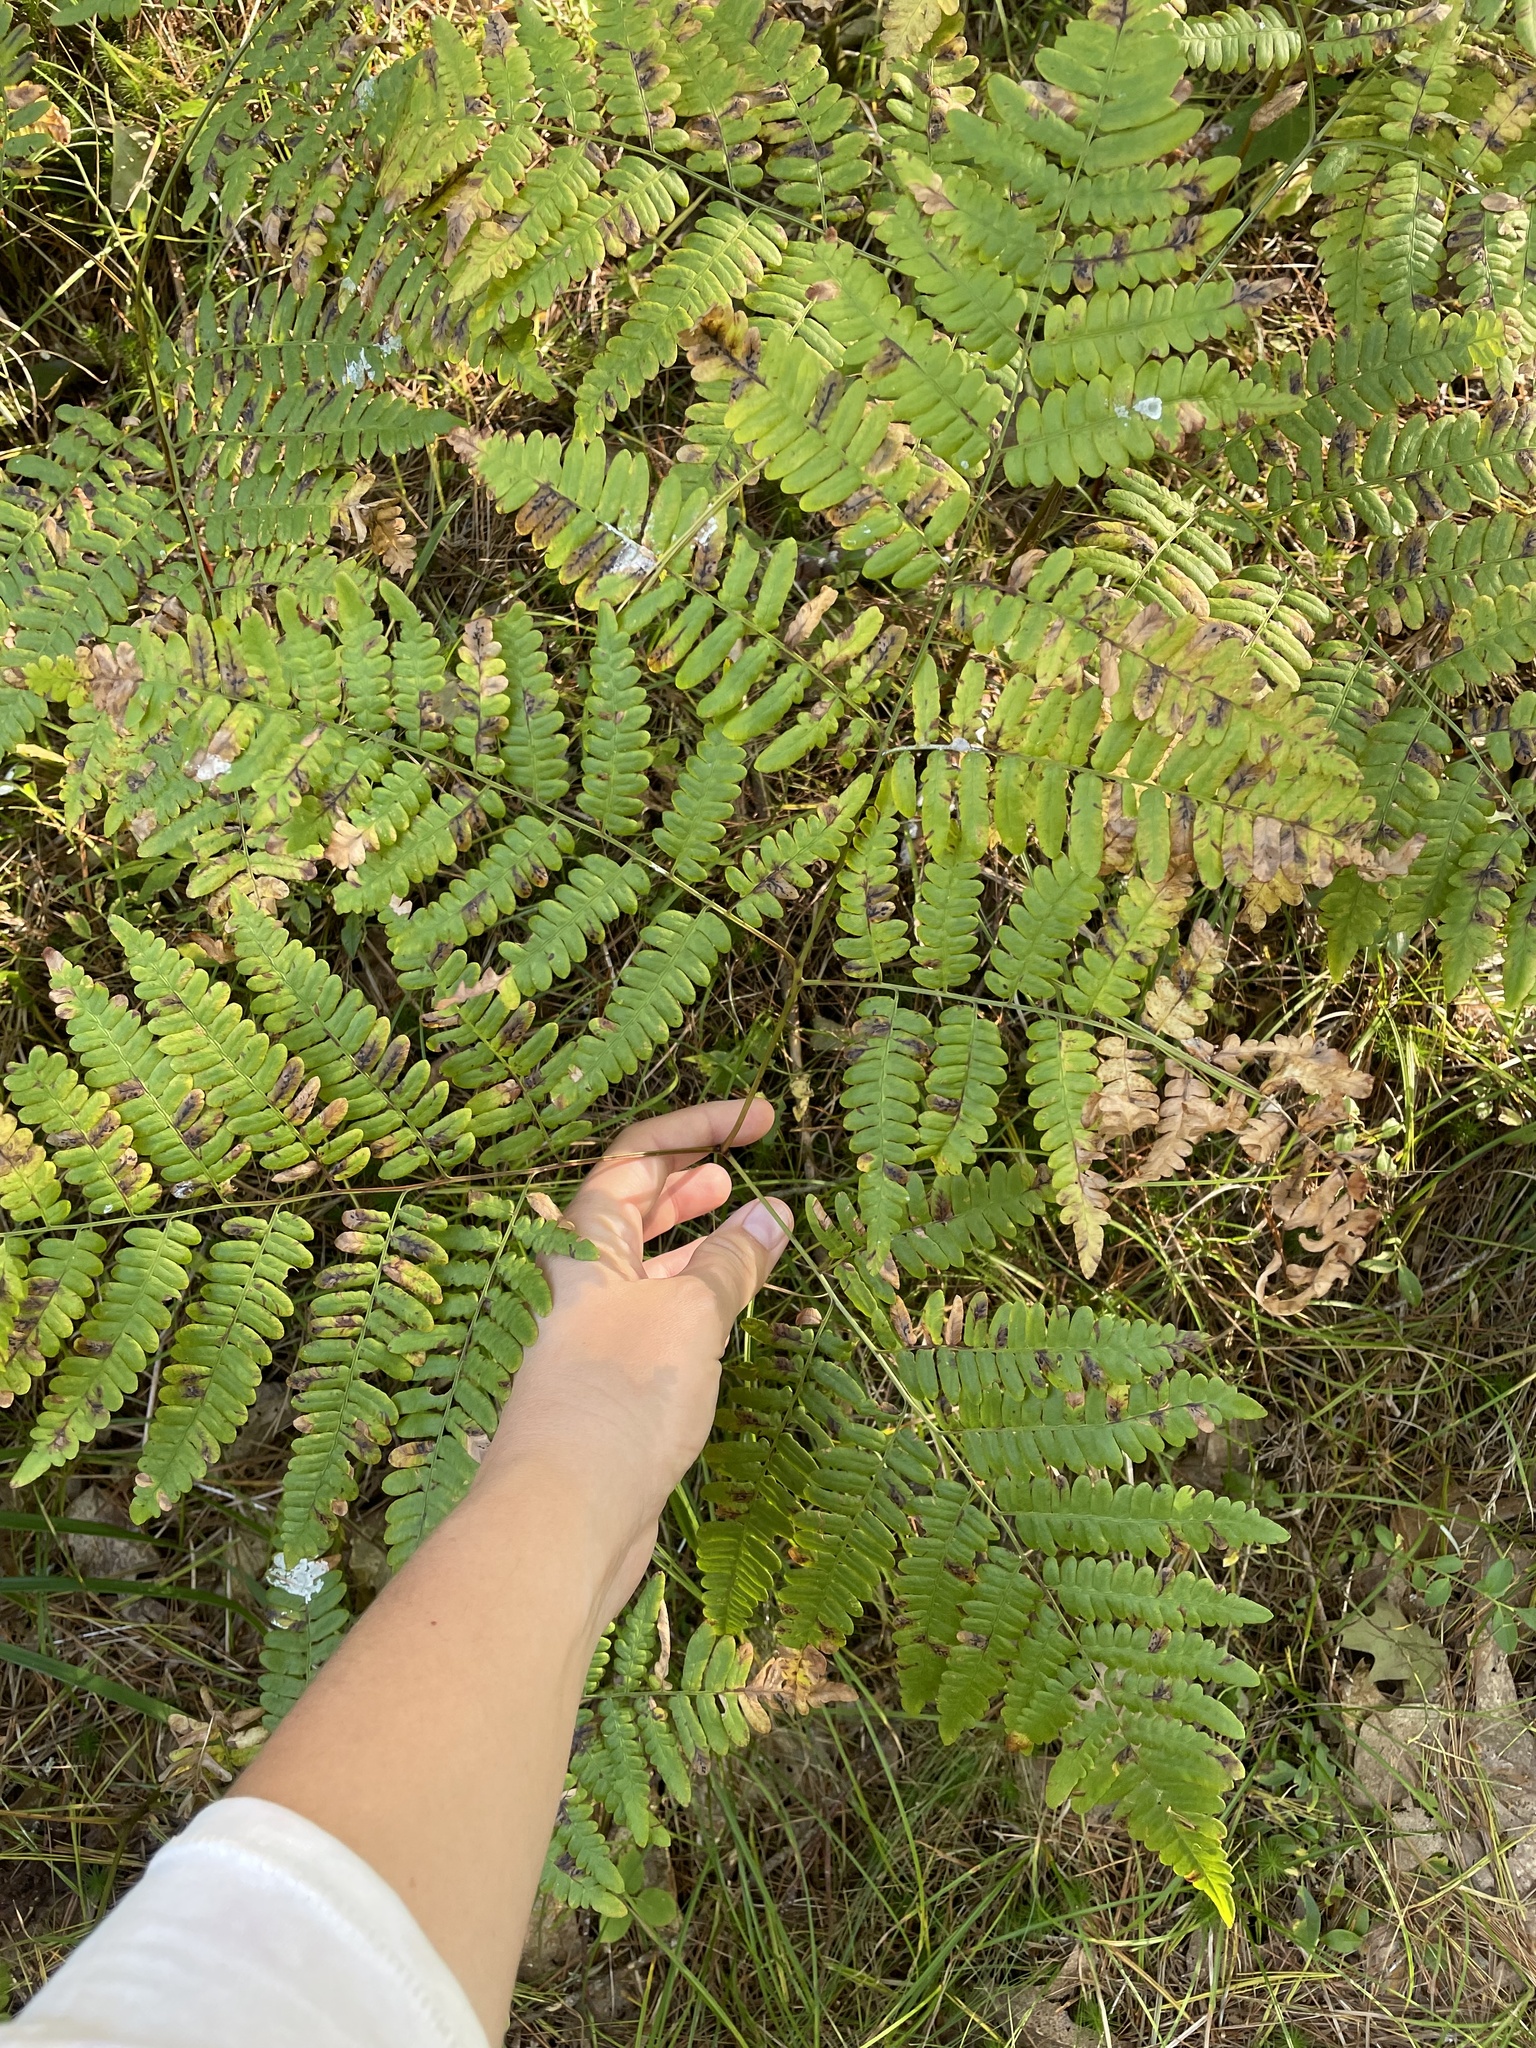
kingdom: Plantae
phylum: Tracheophyta
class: Polypodiopsida
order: Polypodiales
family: Dennstaedtiaceae
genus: Pteridium
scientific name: Pteridium aquilinum
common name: Bracken
